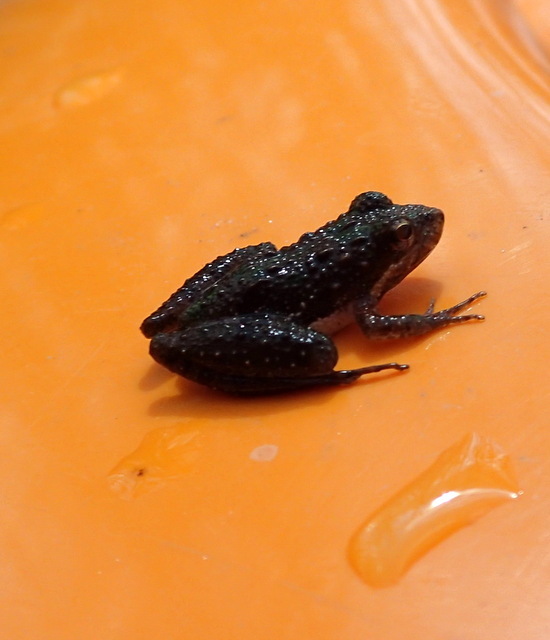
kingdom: Animalia
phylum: Chordata
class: Amphibia
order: Anura
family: Hylidae
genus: Acris
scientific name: Acris gryllus
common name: Southern cricket frog
